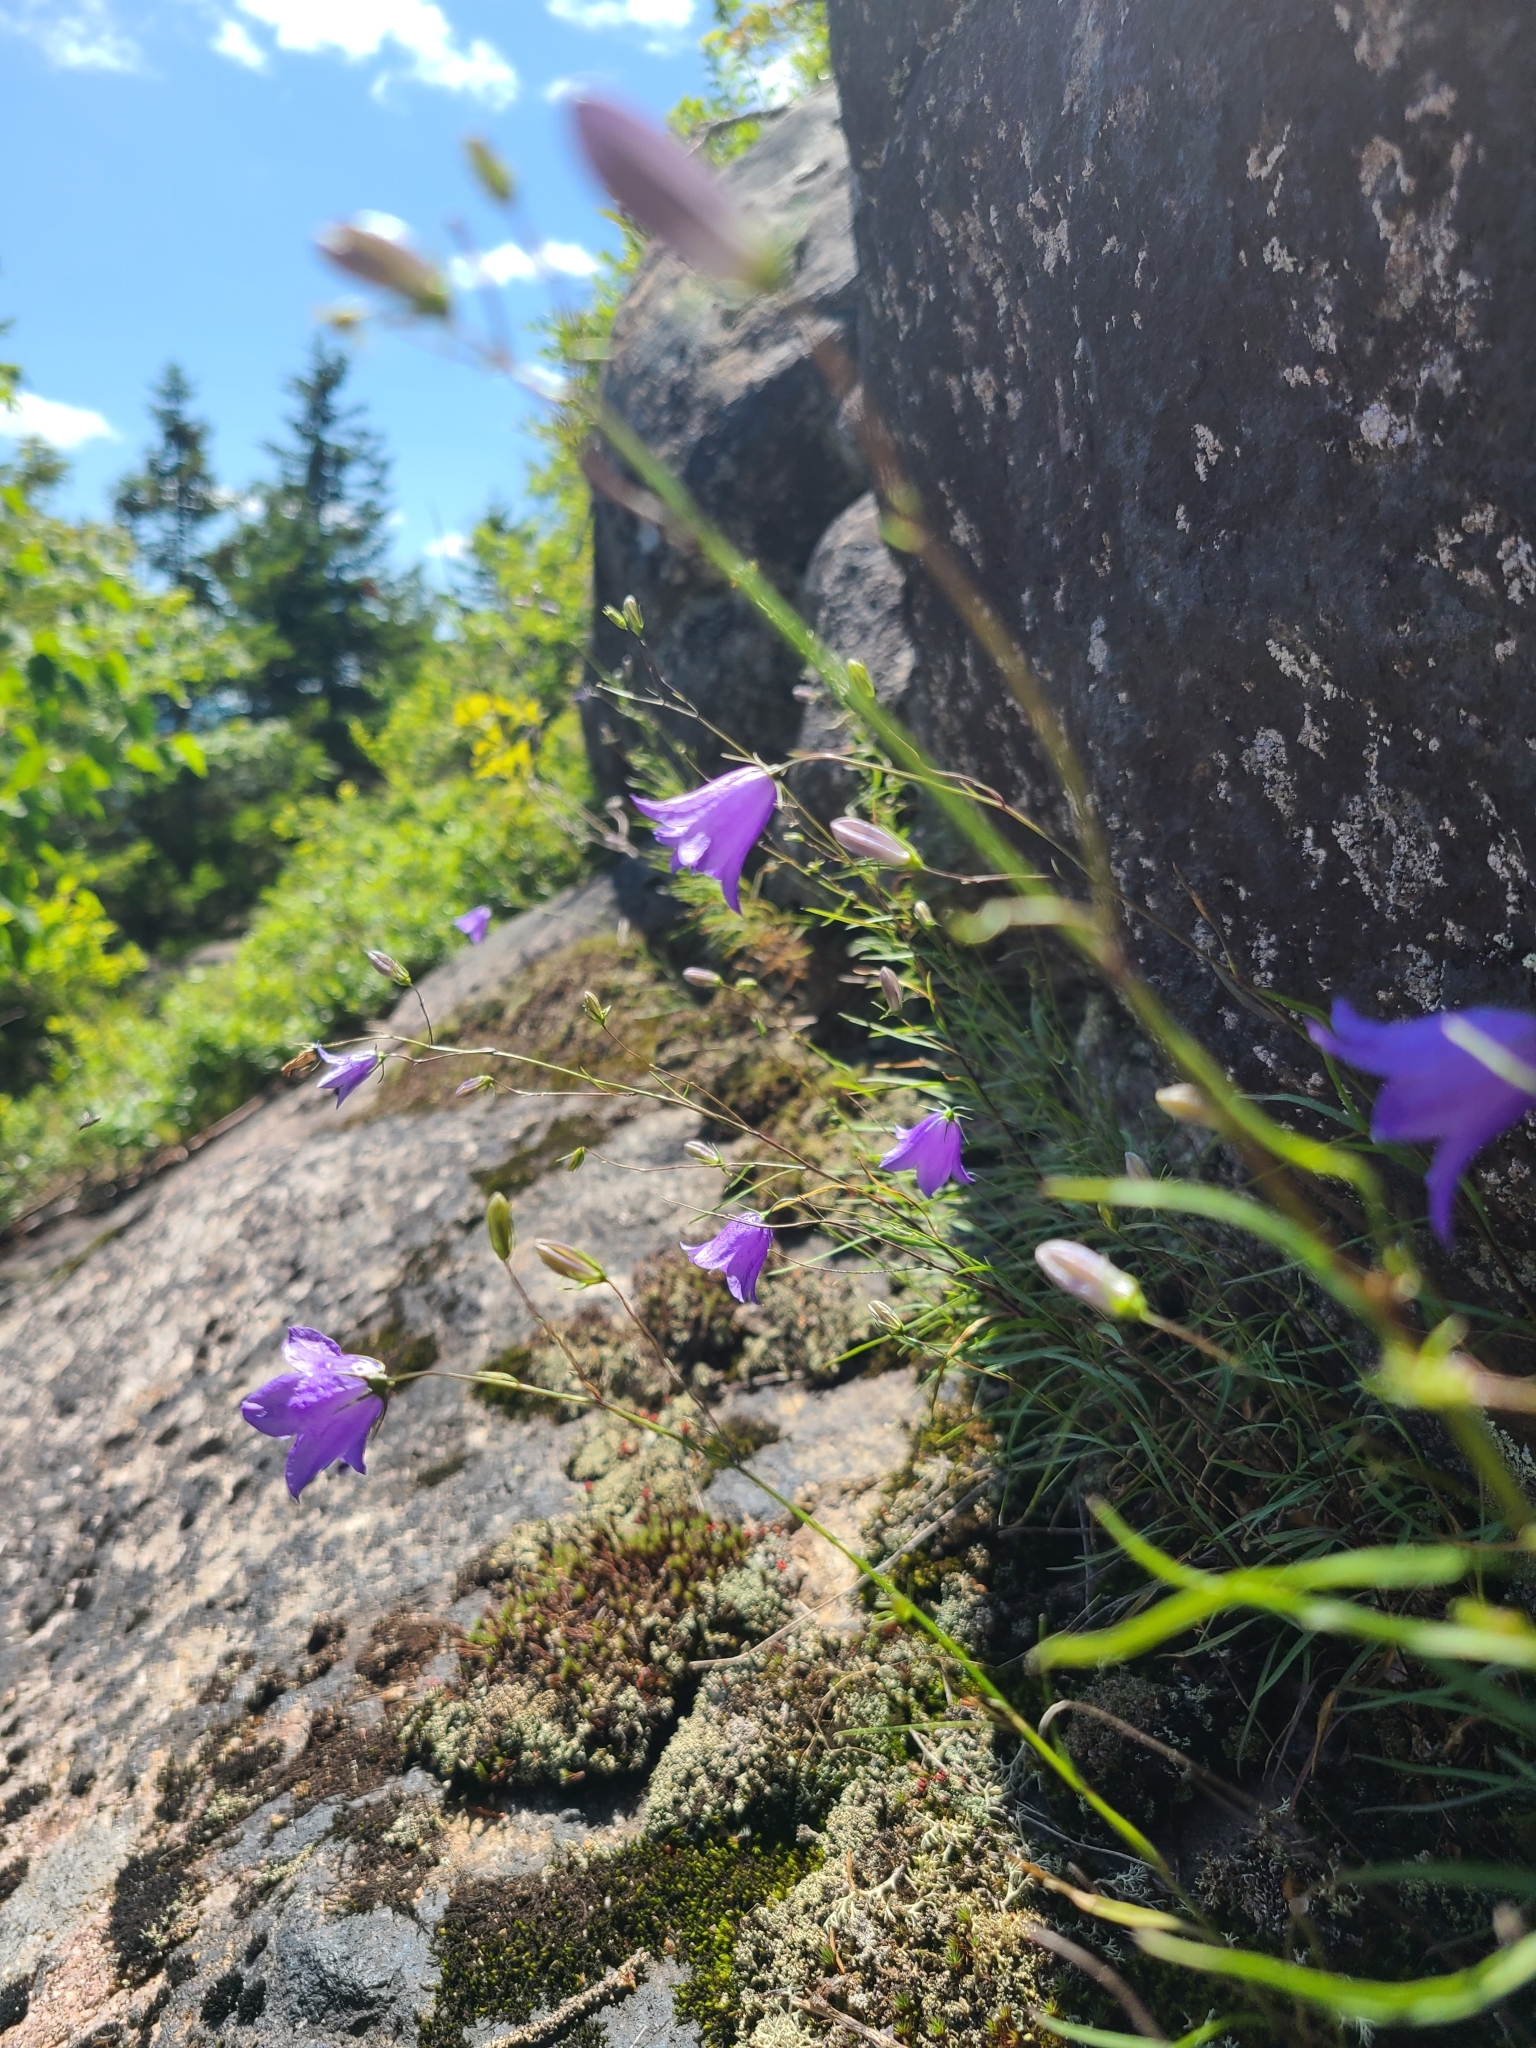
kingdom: Plantae
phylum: Tracheophyta
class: Magnoliopsida
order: Asterales
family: Campanulaceae
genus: Campanula
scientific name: Campanula intercedens
